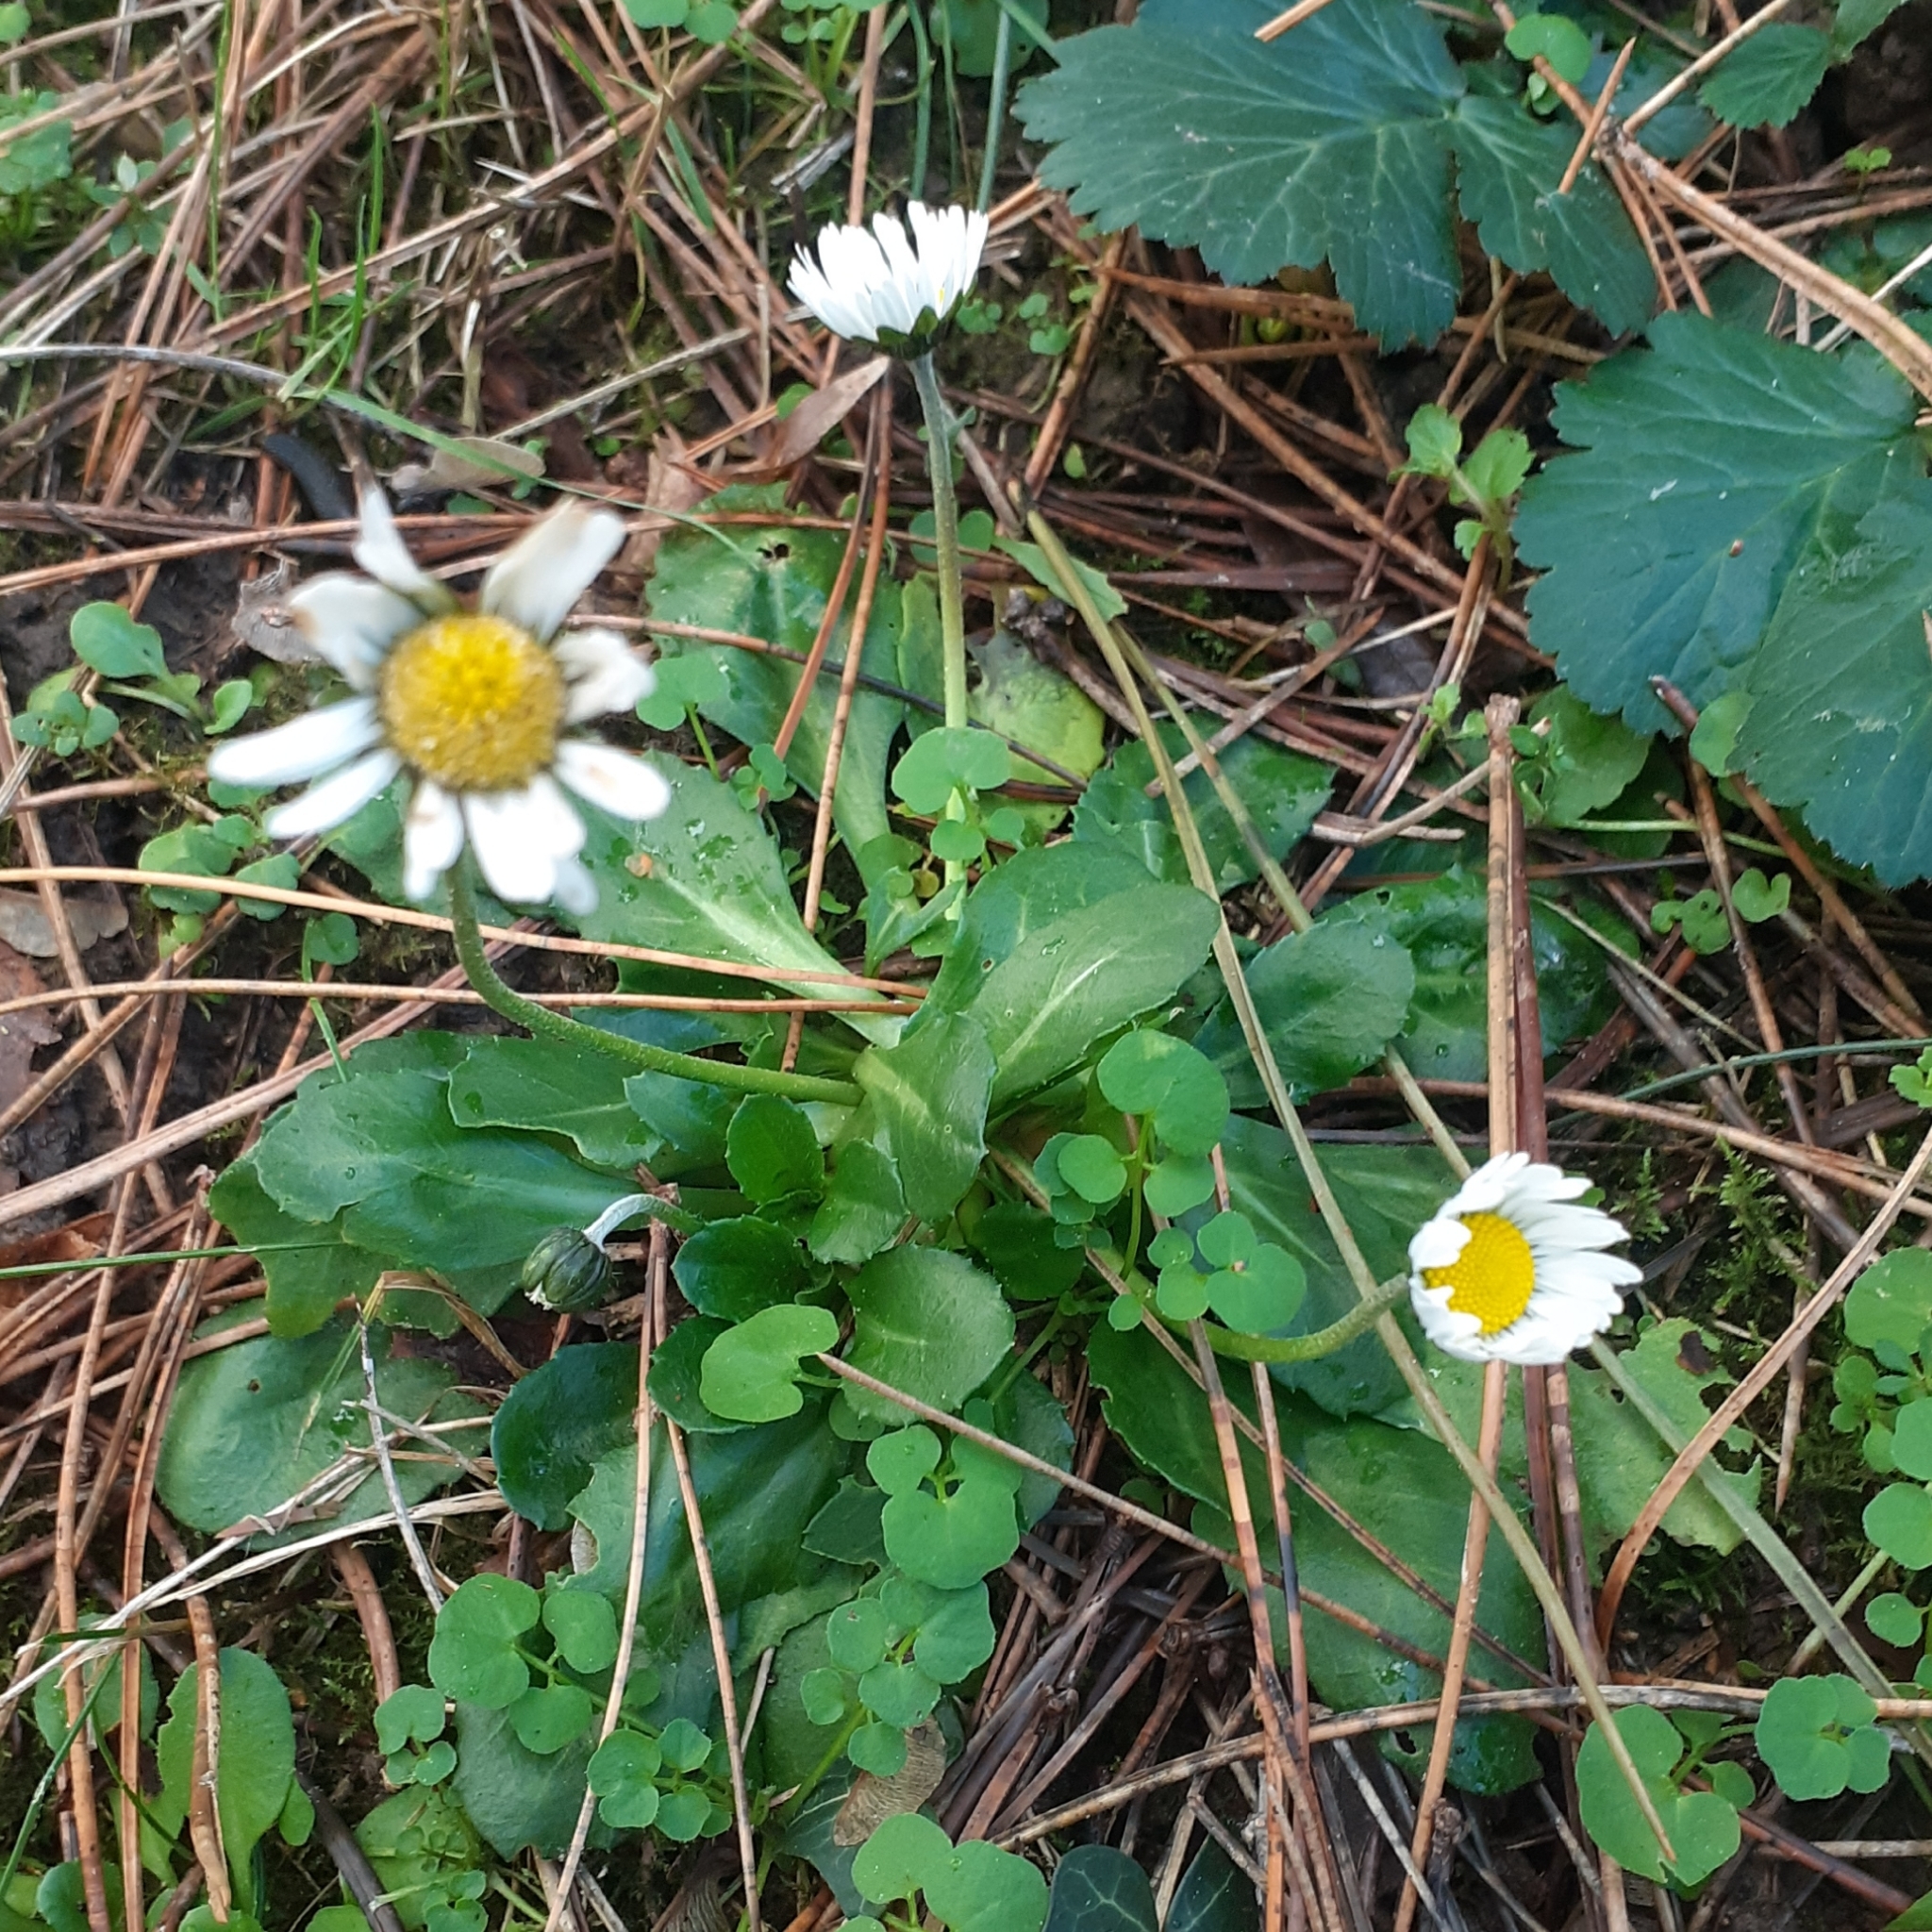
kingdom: Plantae
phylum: Tracheophyta
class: Magnoliopsida
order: Asterales
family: Asteraceae
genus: Bellis
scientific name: Bellis perennis
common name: Lawndaisy
